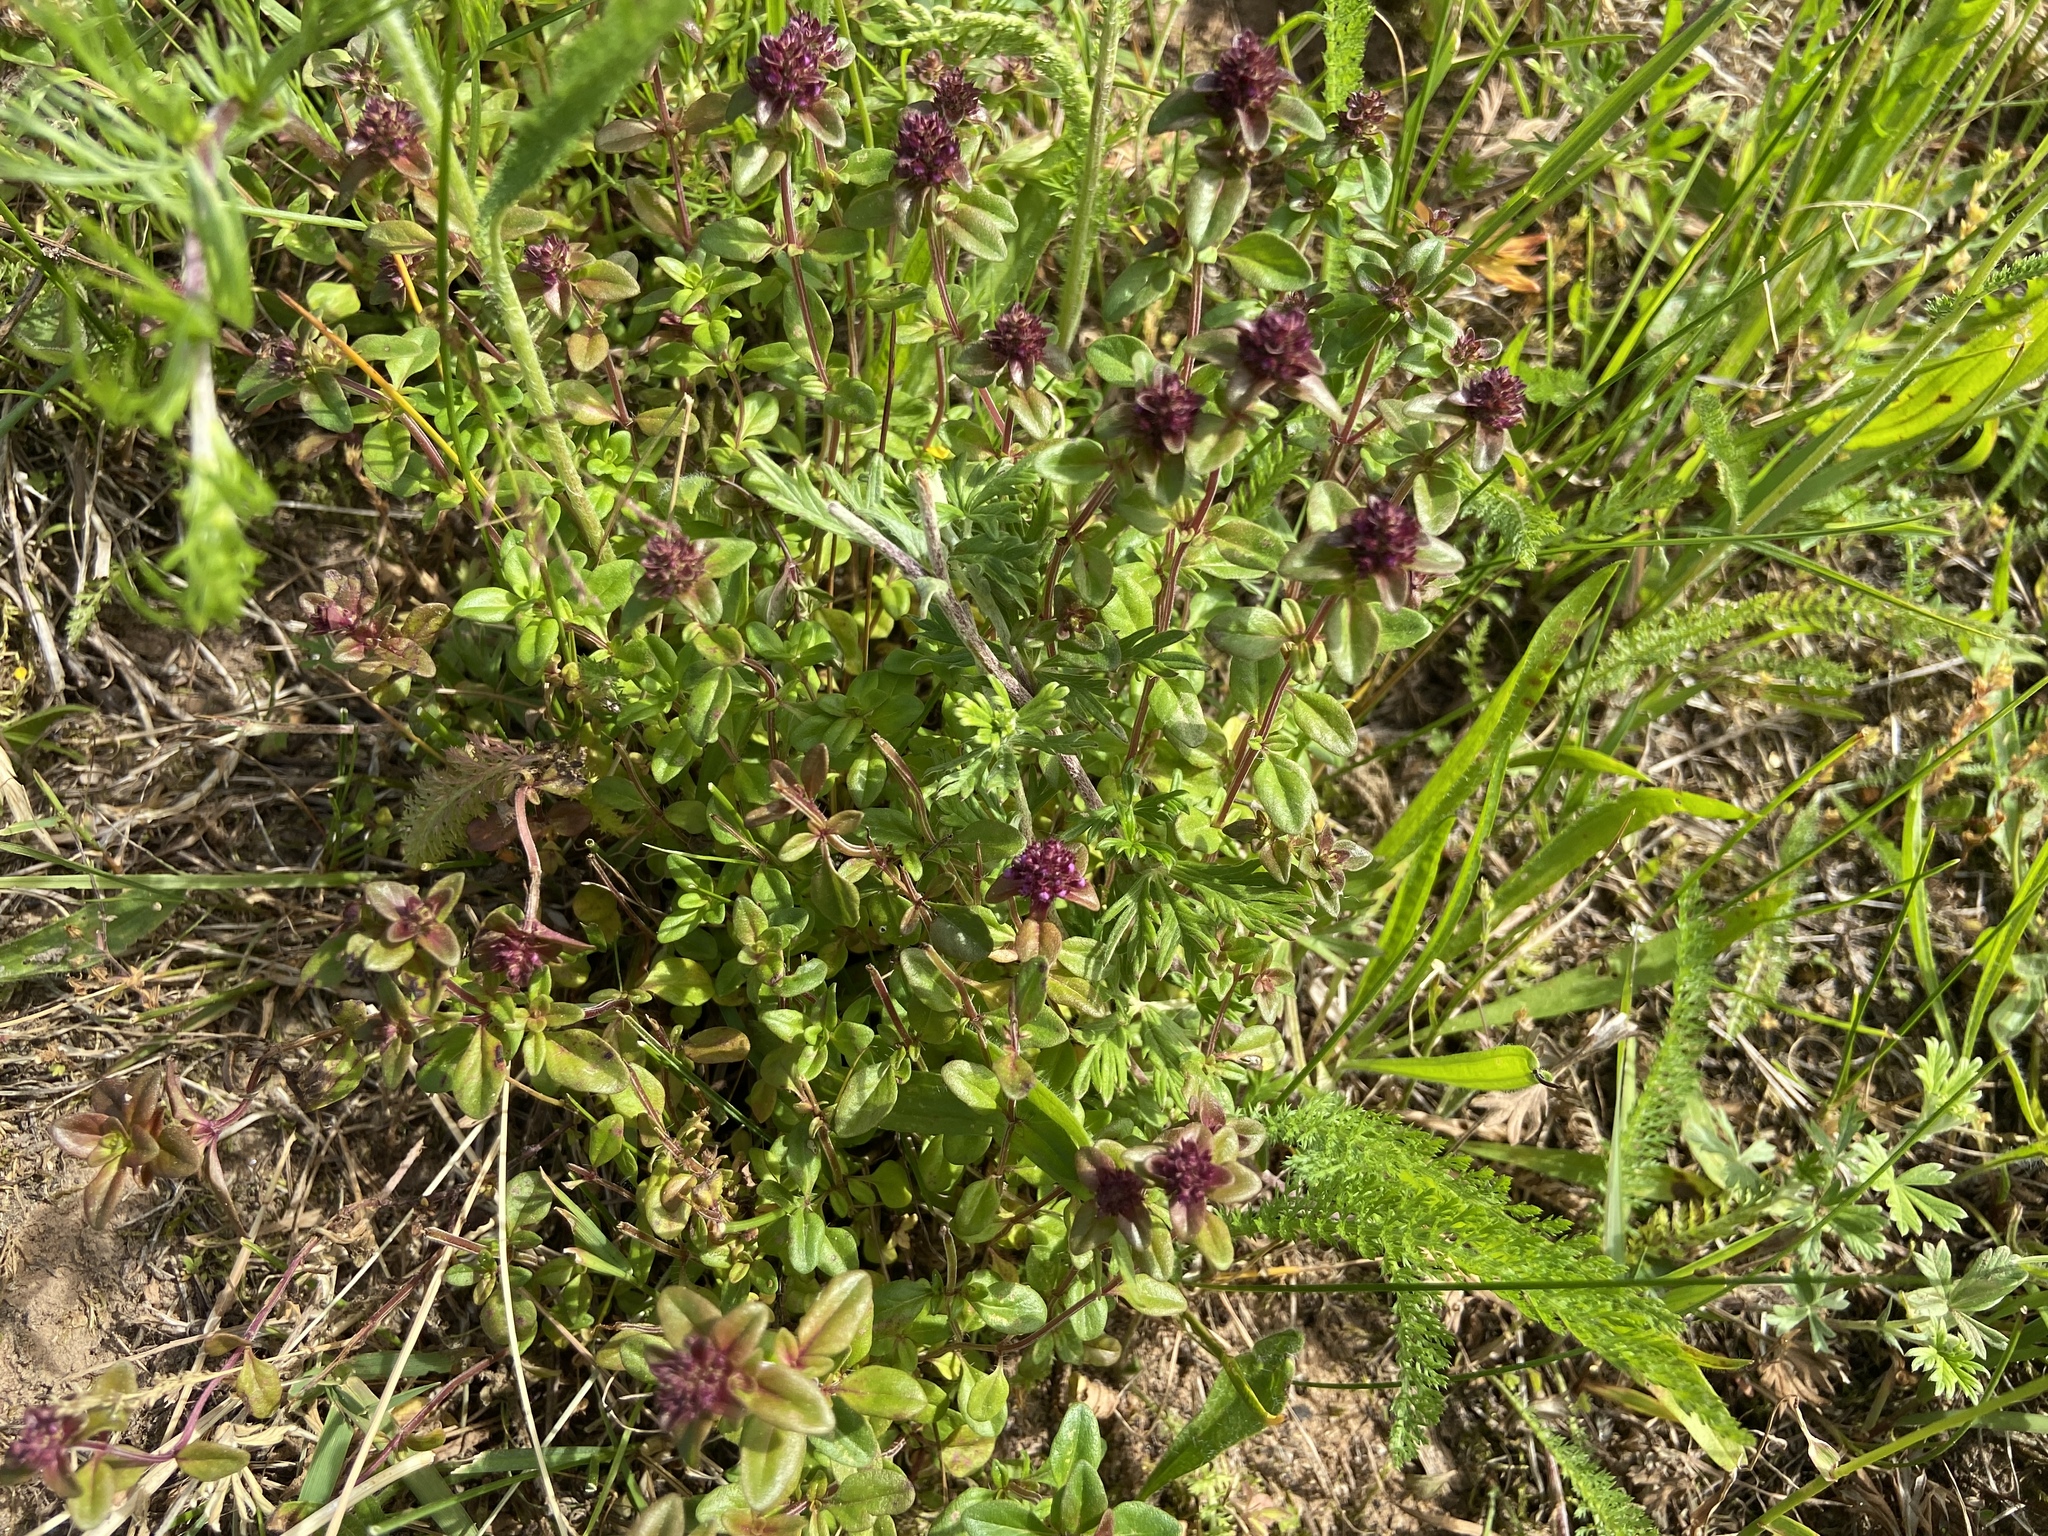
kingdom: Plantae
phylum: Tracheophyta
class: Magnoliopsida
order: Lamiales
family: Lamiaceae
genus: Thymus
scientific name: Thymus pulegioides
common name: Large thyme
